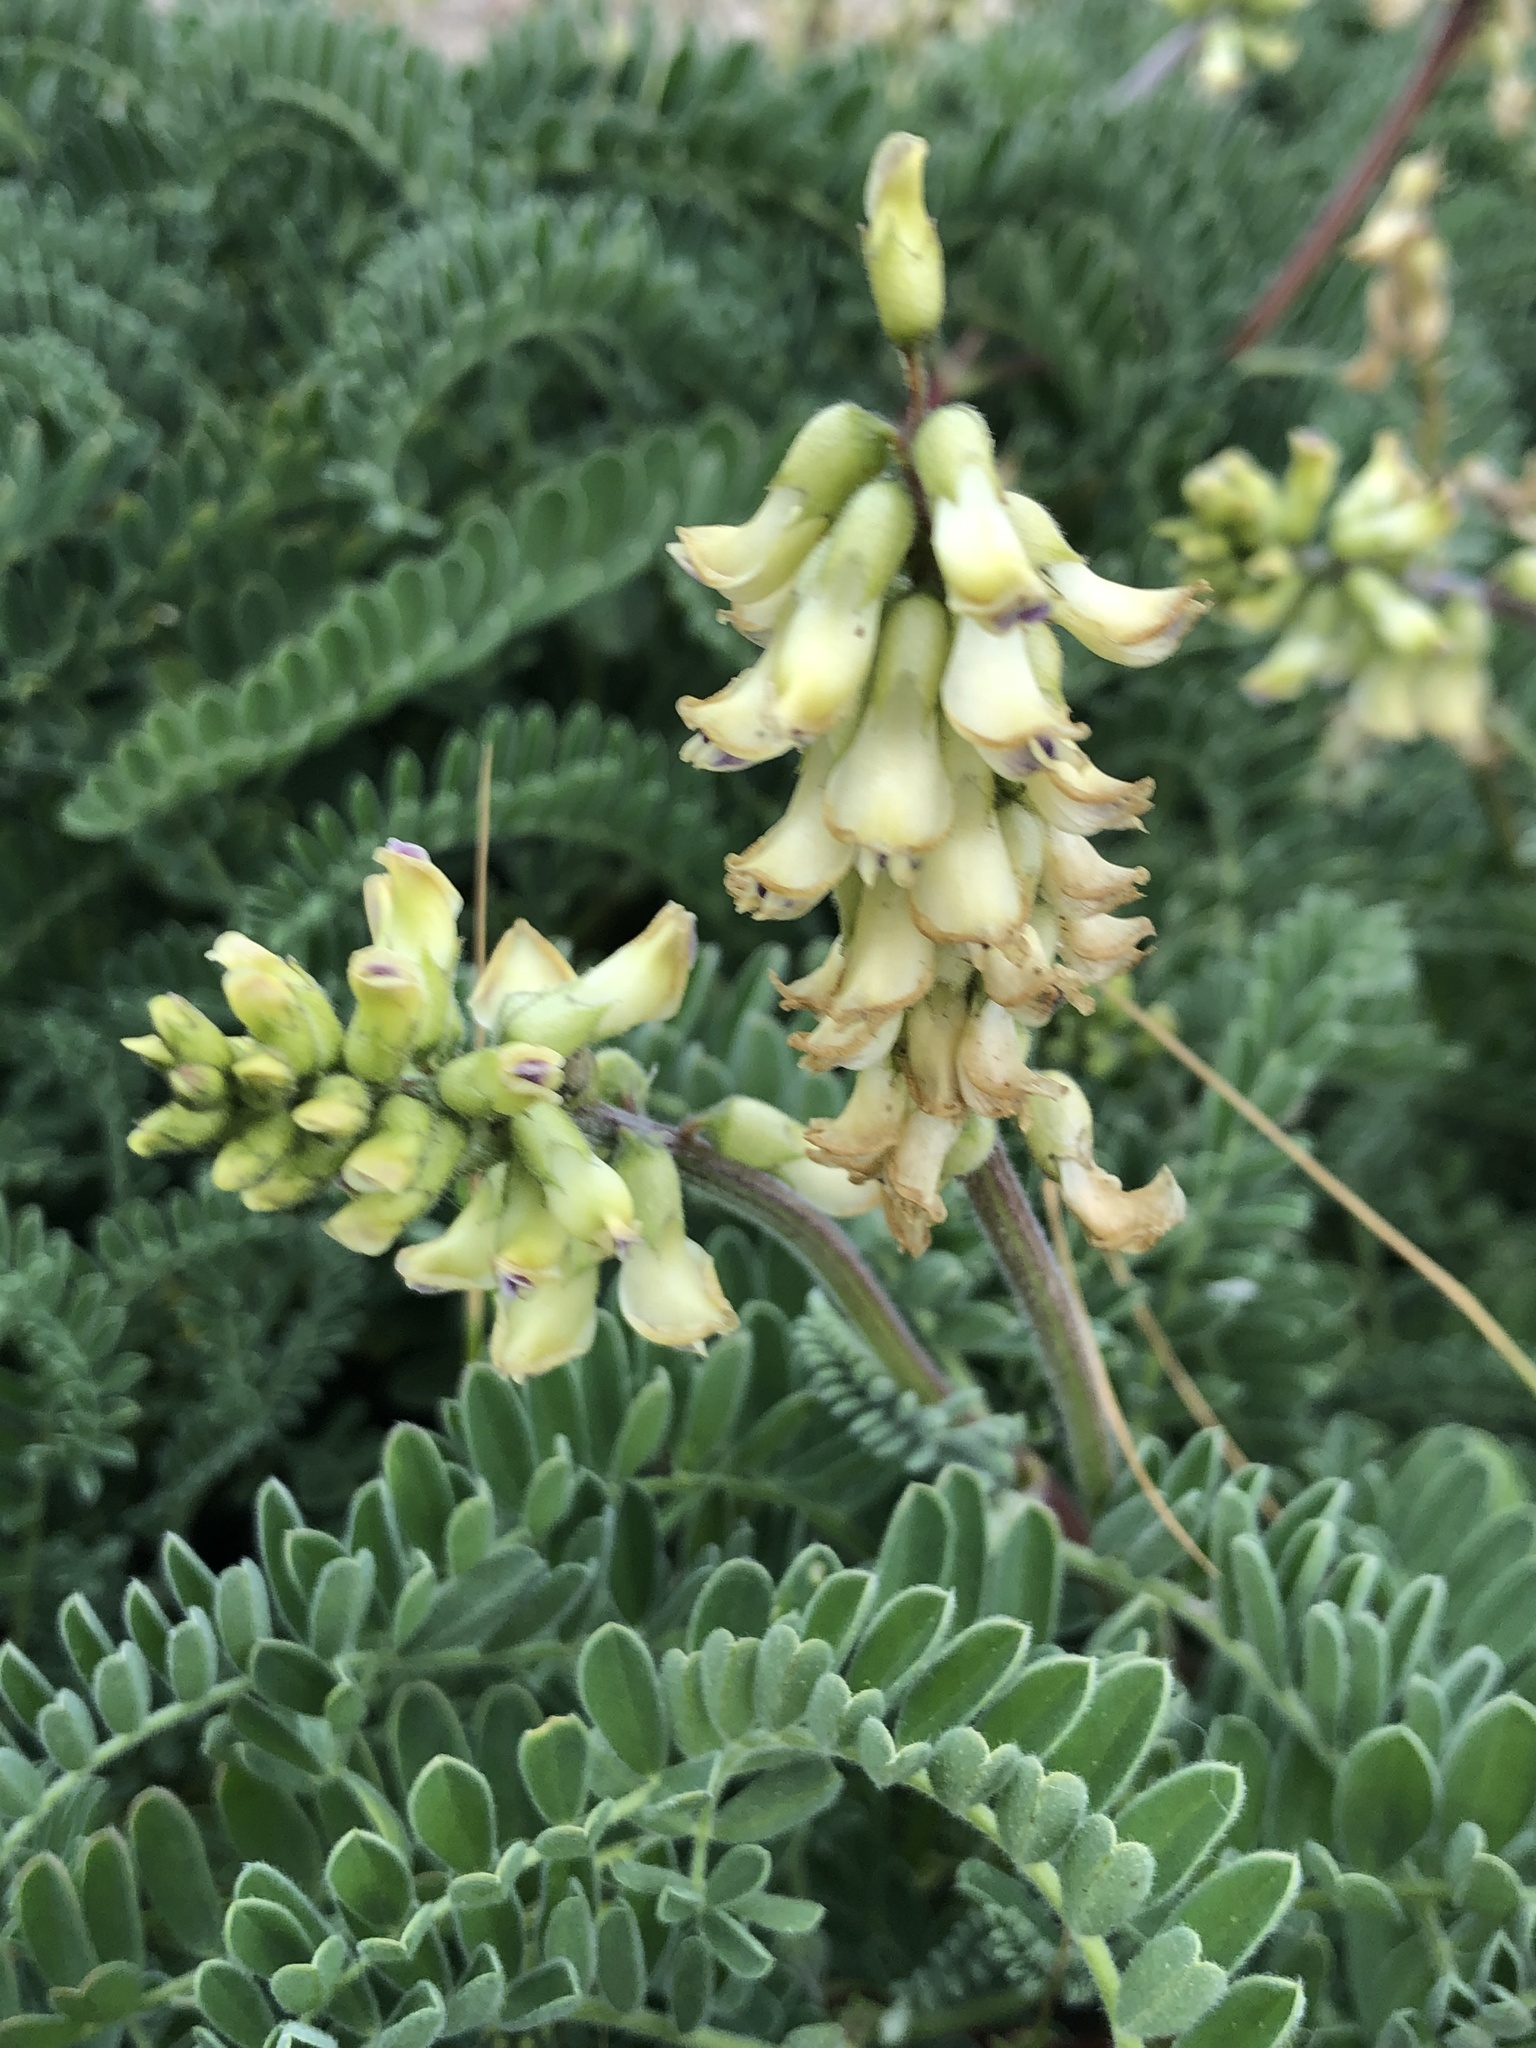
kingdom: Plantae
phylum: Tracheophyta
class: Magnoliopsida
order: Fabales
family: Fabaceae
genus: Astragalus
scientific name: Astragalus nuttallii
